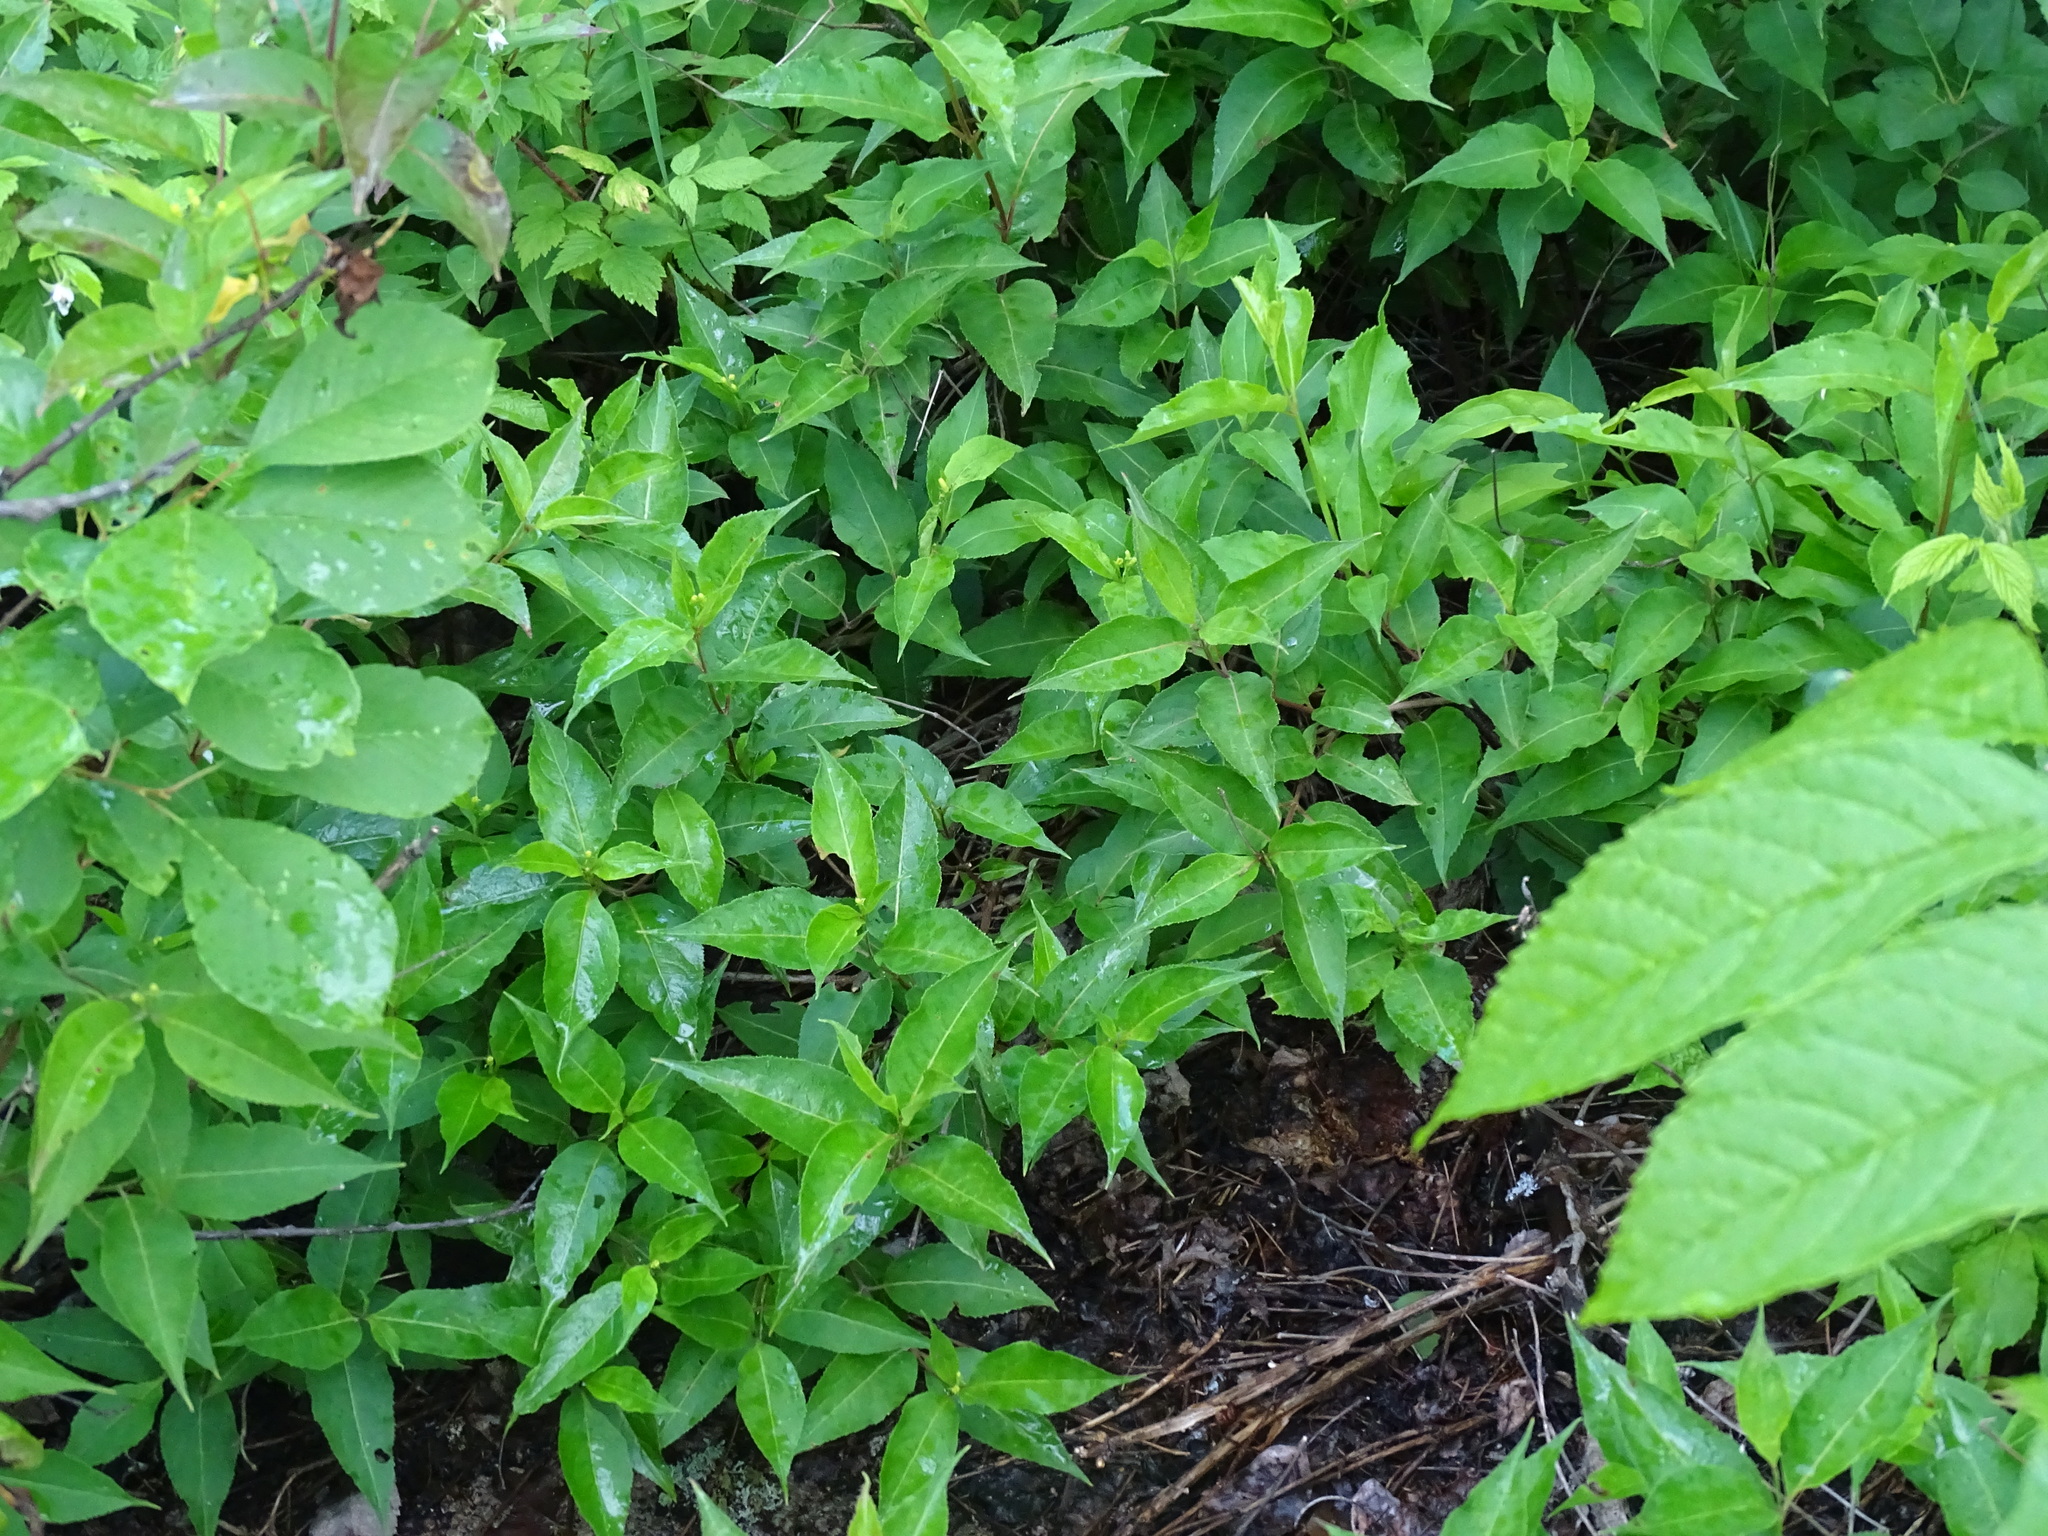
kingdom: Plantae
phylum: Tracheophyta
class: Magnoliopsida
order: Dipsacales
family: Caprifoliaceae
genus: Diervilla
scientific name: Diervilla lonicera
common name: Bush-honeysuckle
